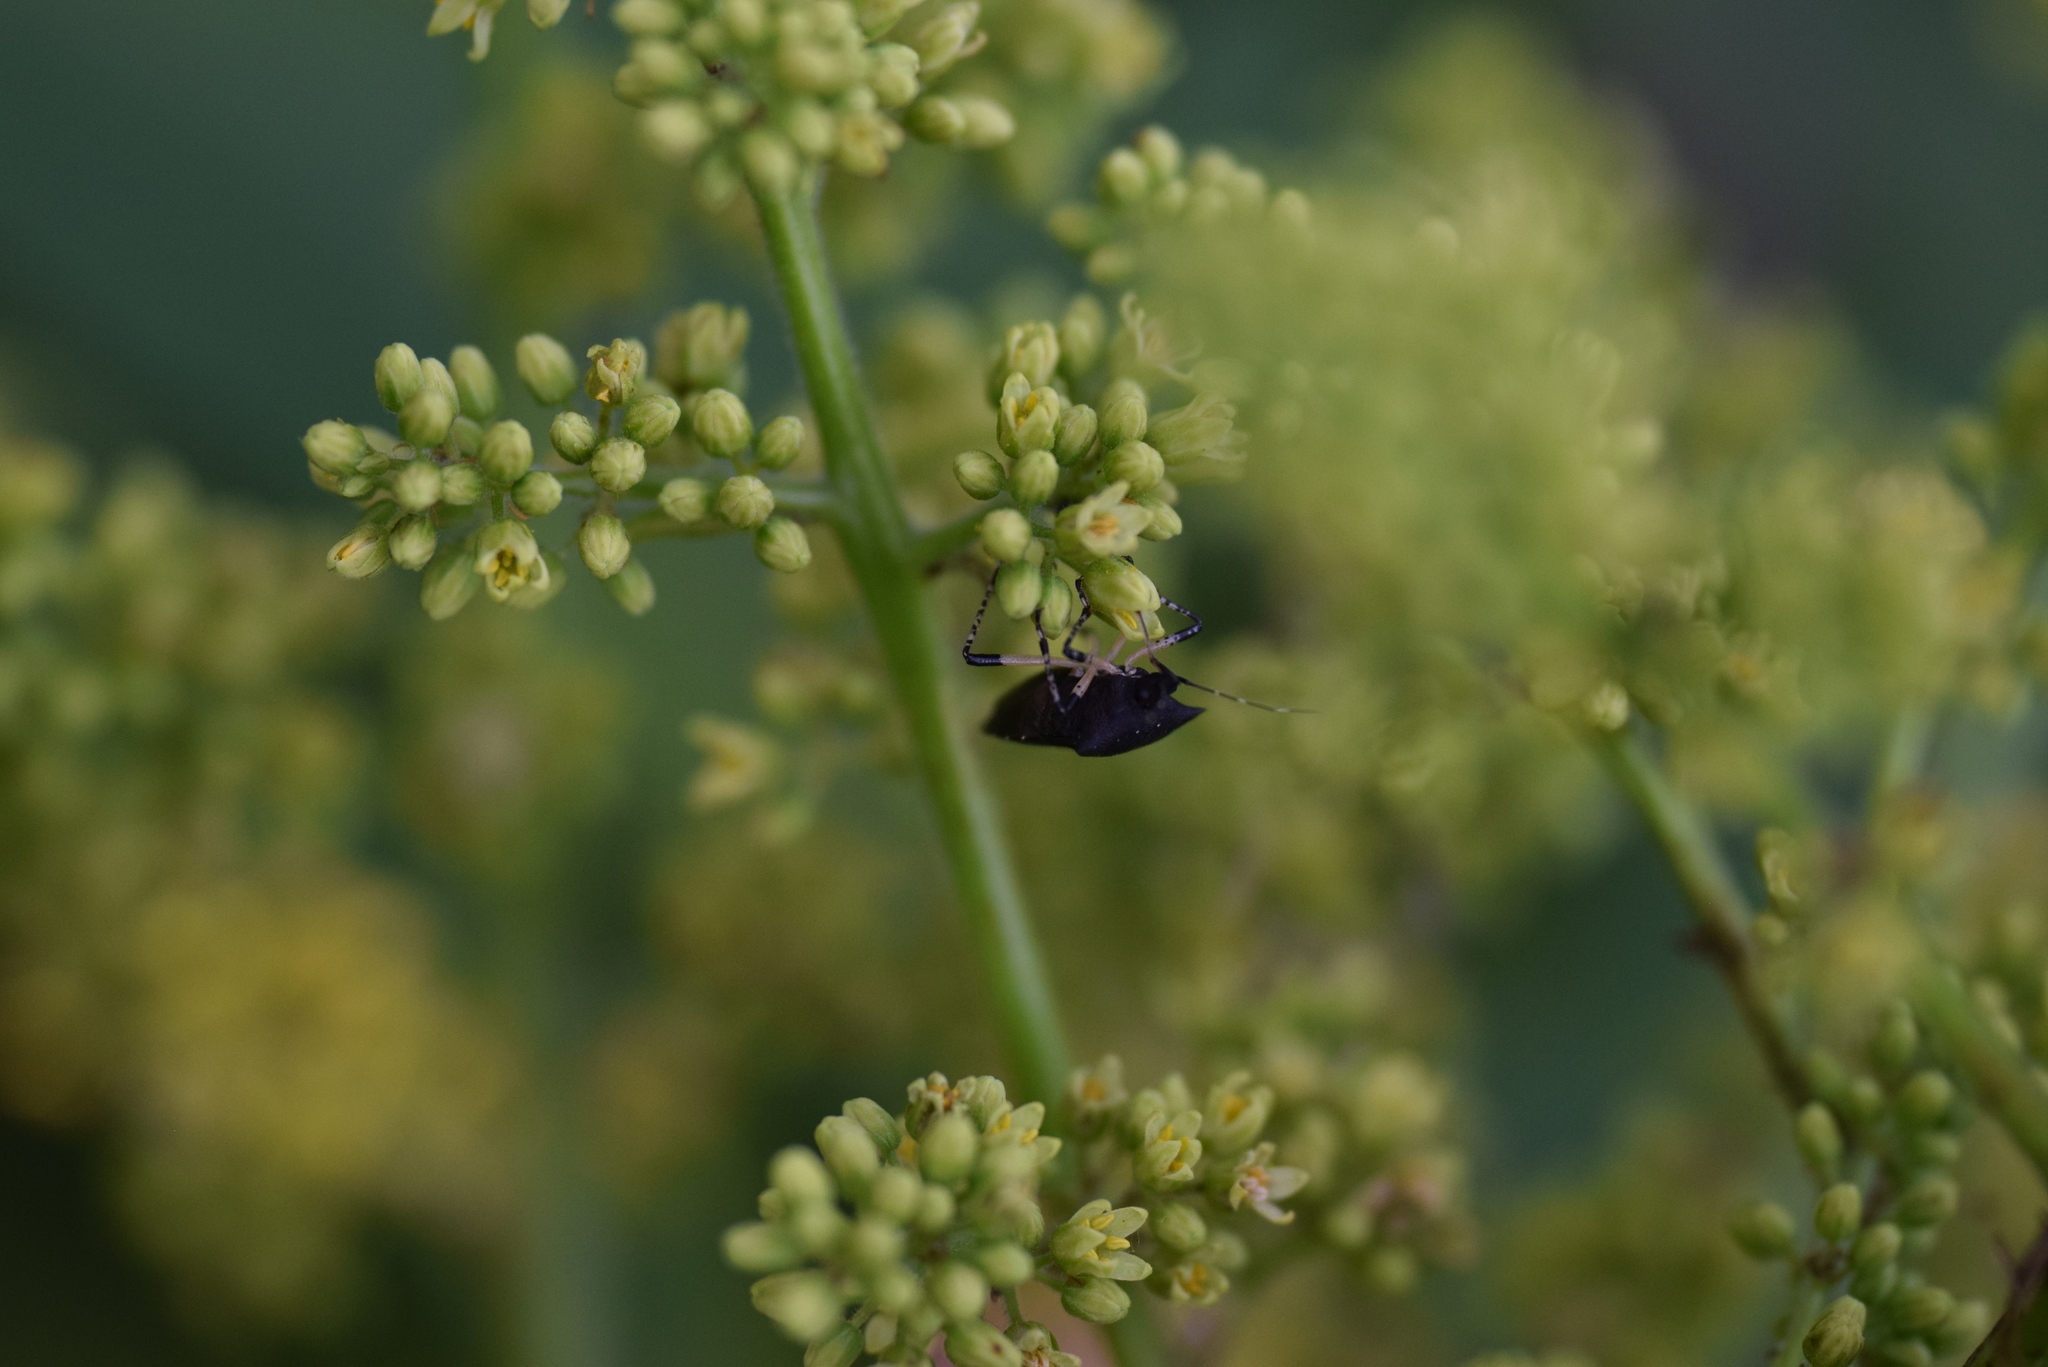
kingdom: Animalia
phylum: Arthropoda
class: Insecta
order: Hemiptera
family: Pentatomidae
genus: Proxys
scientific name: Proxys punctulatus
